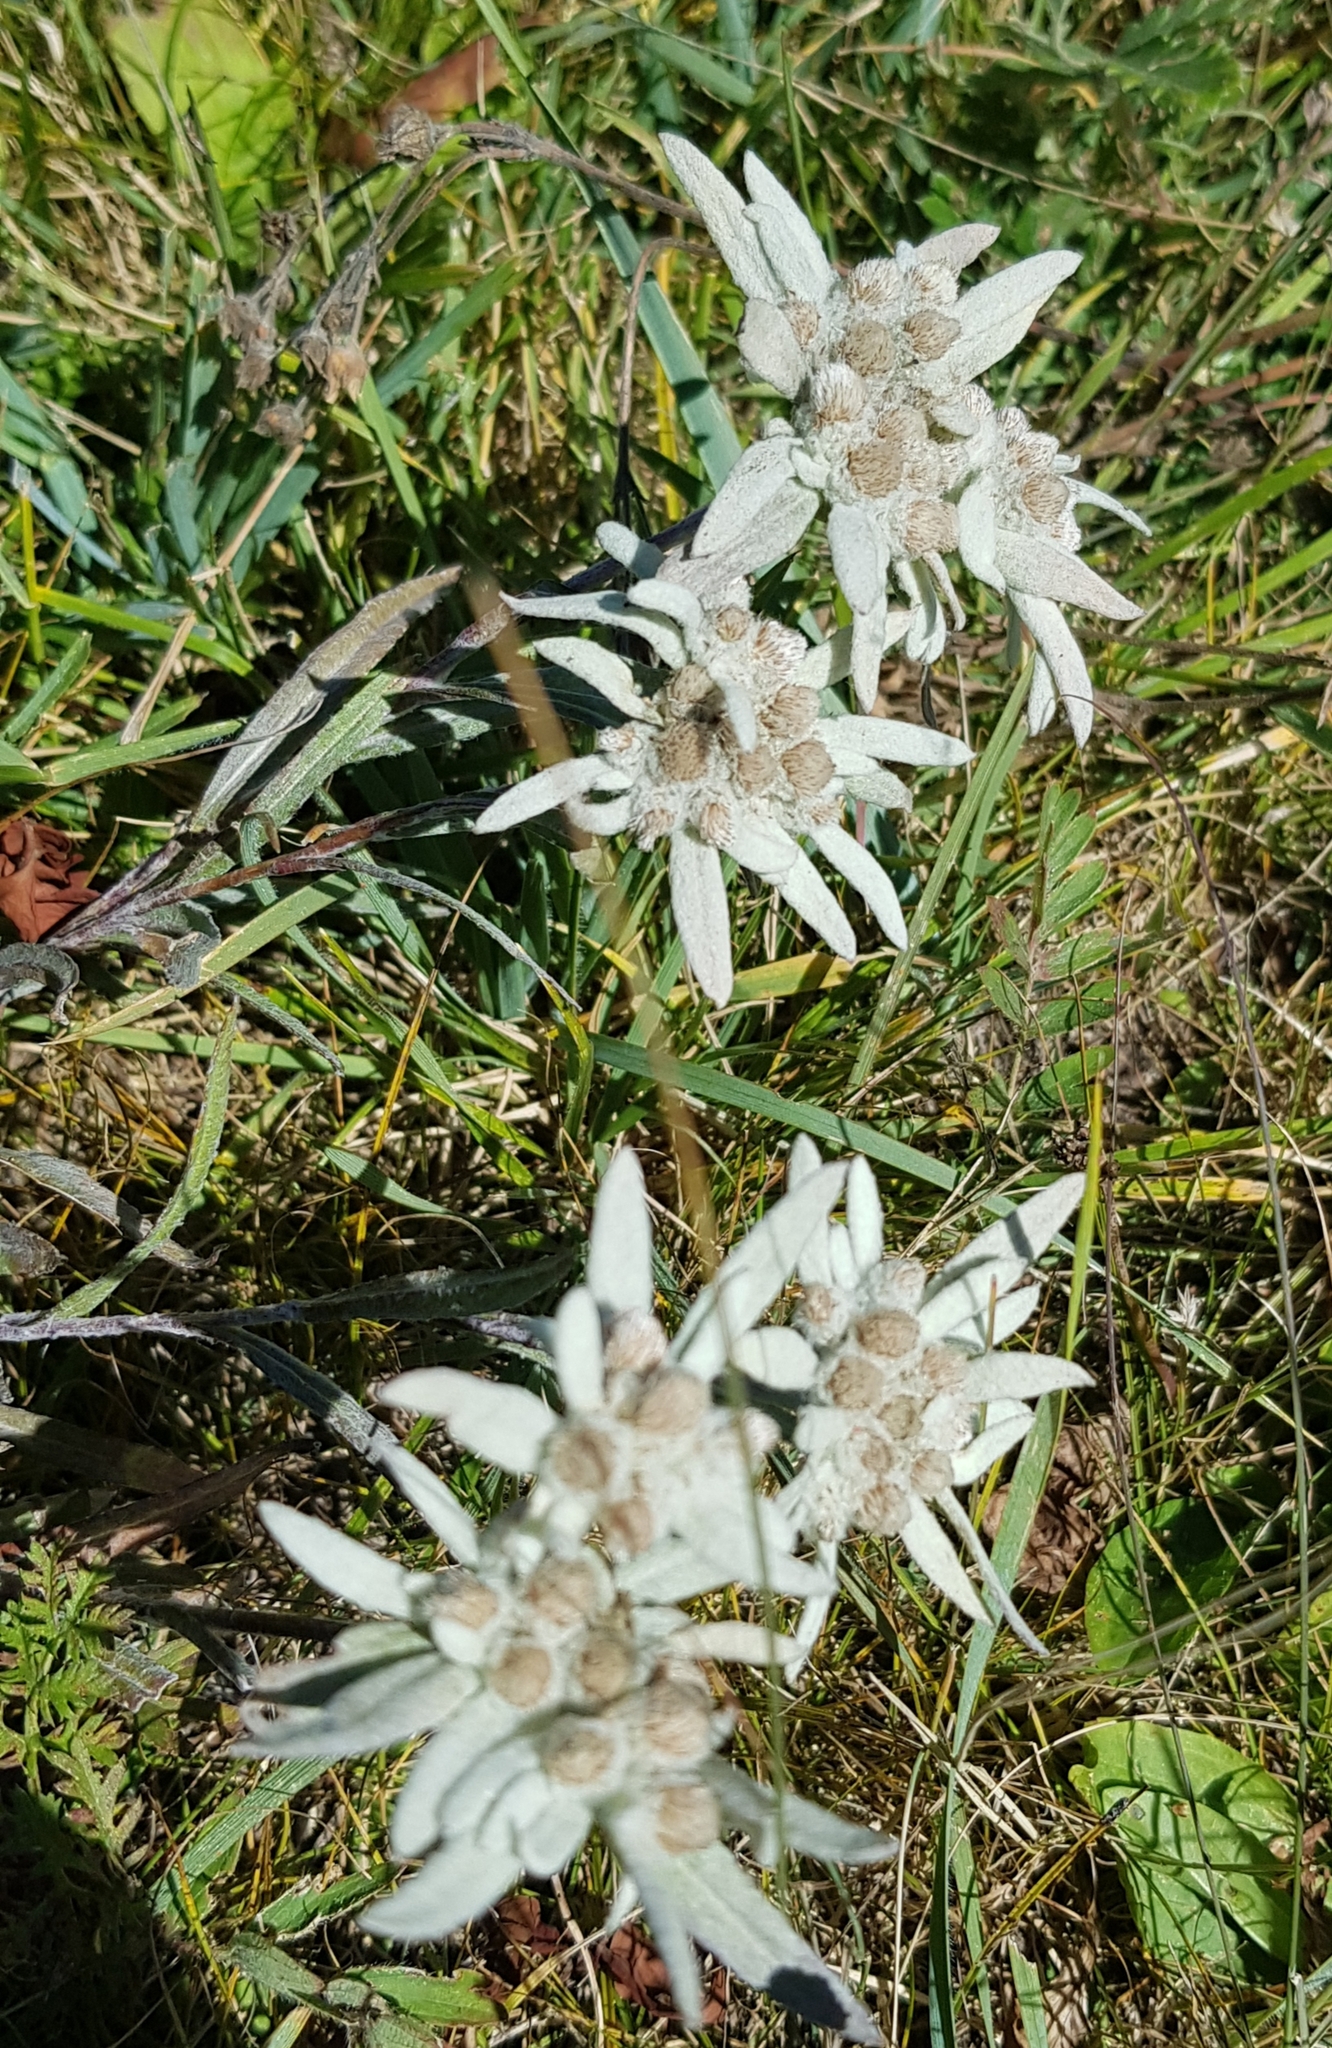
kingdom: Plantae
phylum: Tracheophyta
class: Magnoliopsida
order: Asterales
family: Asteraceae
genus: Leontopodium
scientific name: Leontopodium leontopodinum
